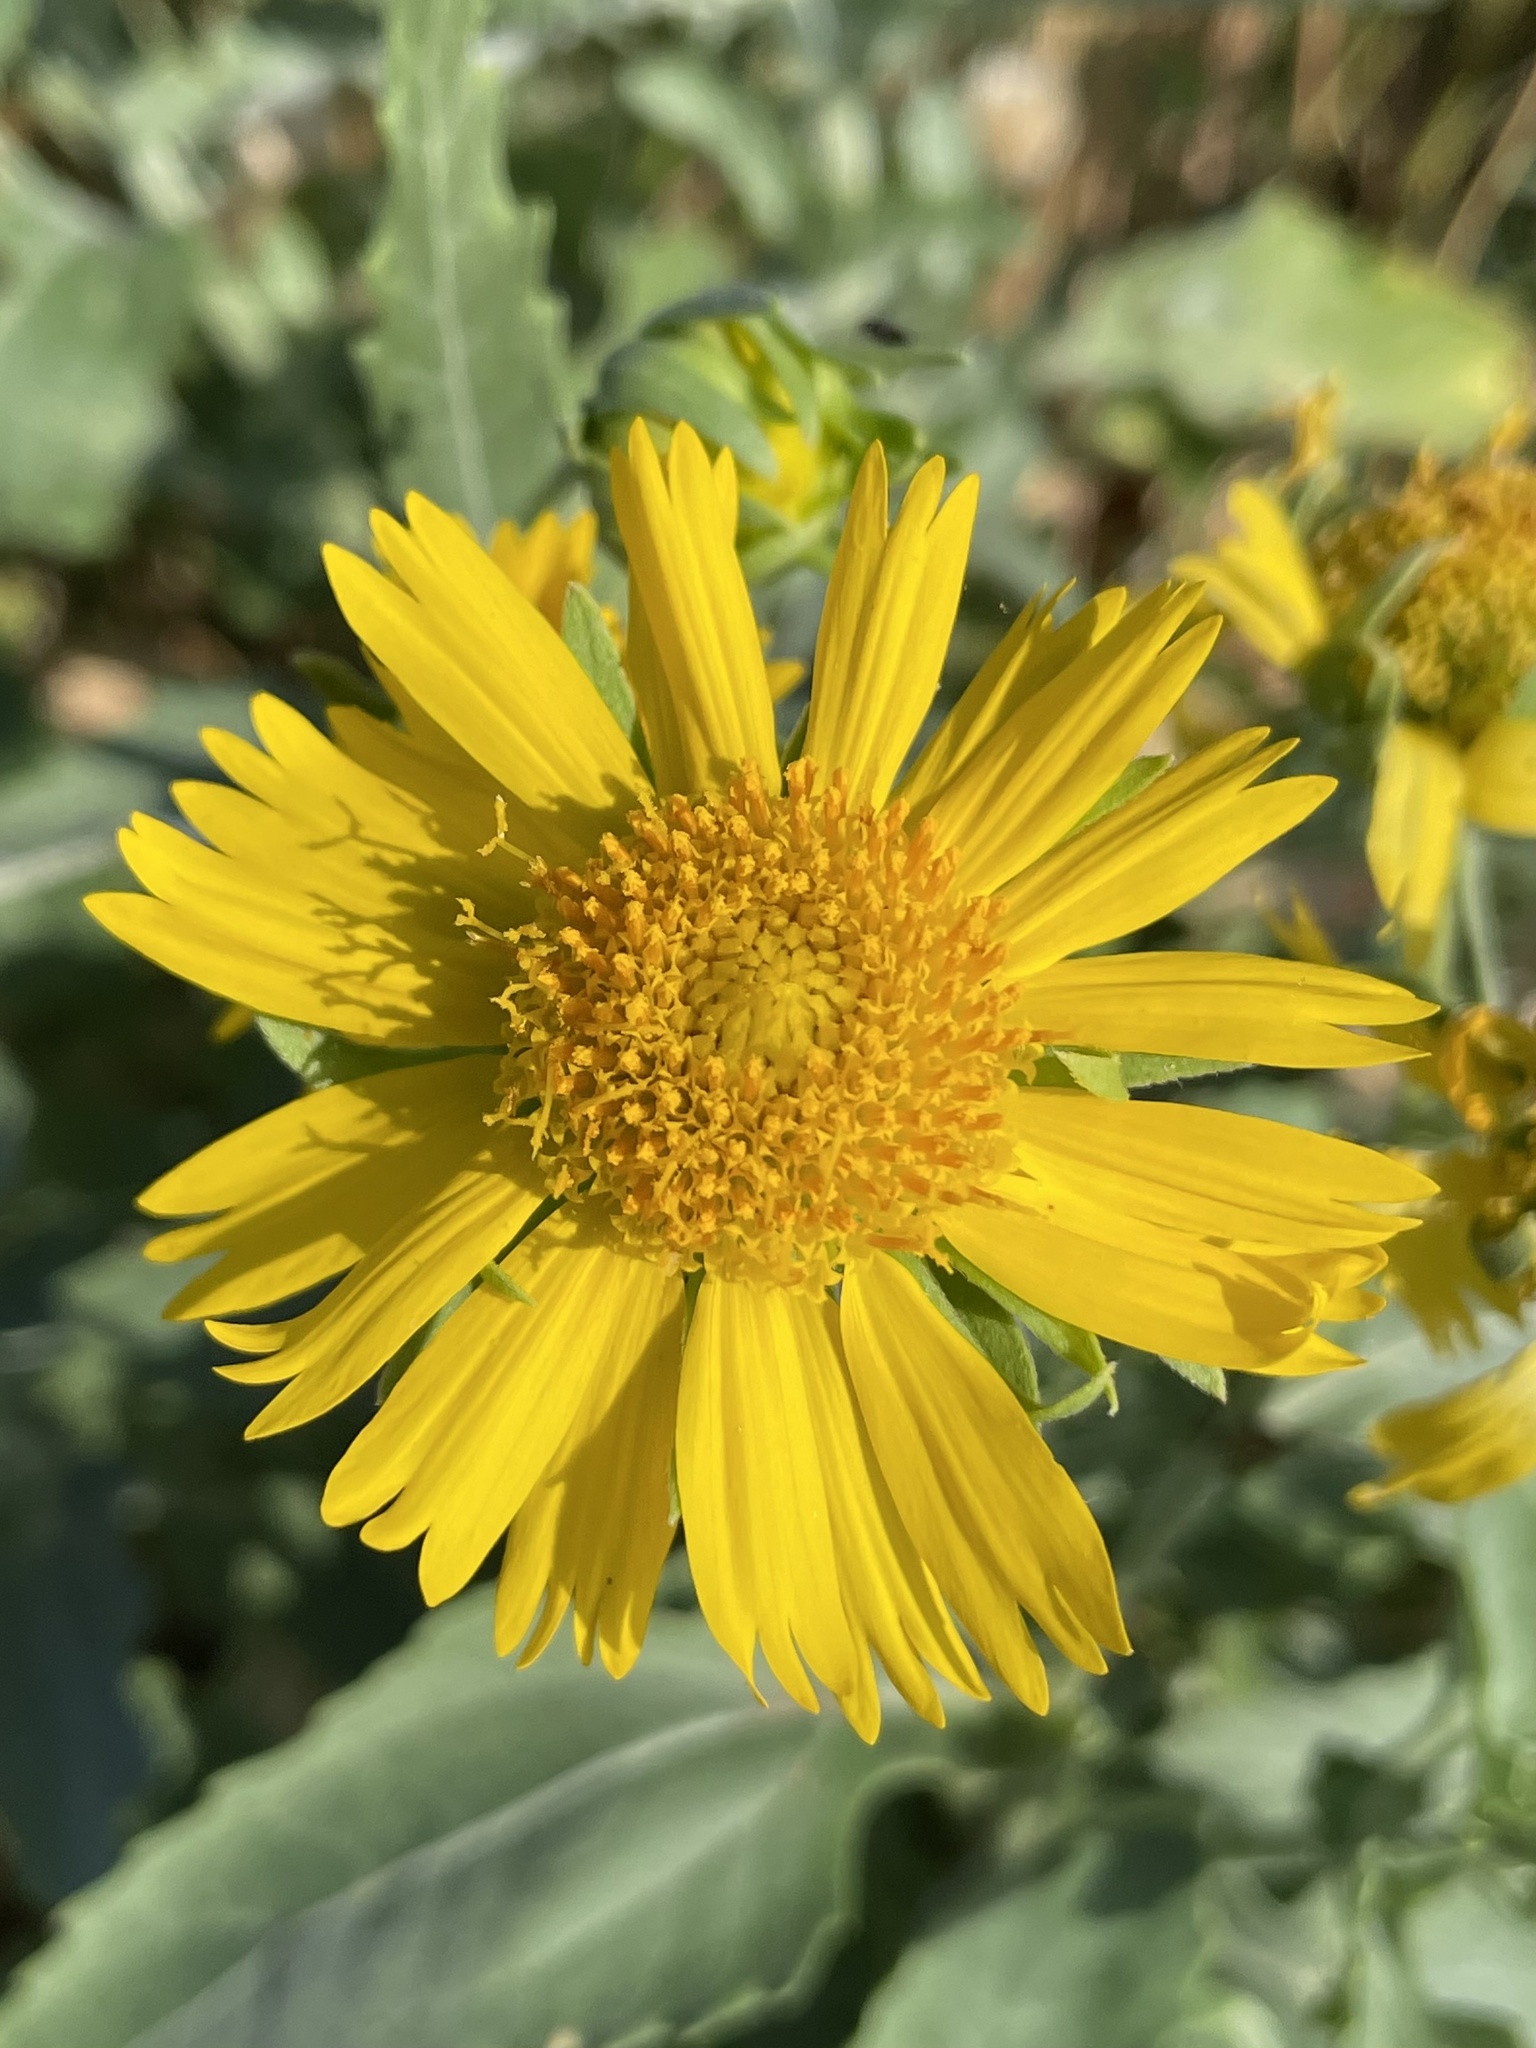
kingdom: Plantae
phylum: Tracheophyta
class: Magnoliopsida
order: Asterales
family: Asteraceae
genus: Verbesina
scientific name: Verbesina encelioides
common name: Golden crownbeard
